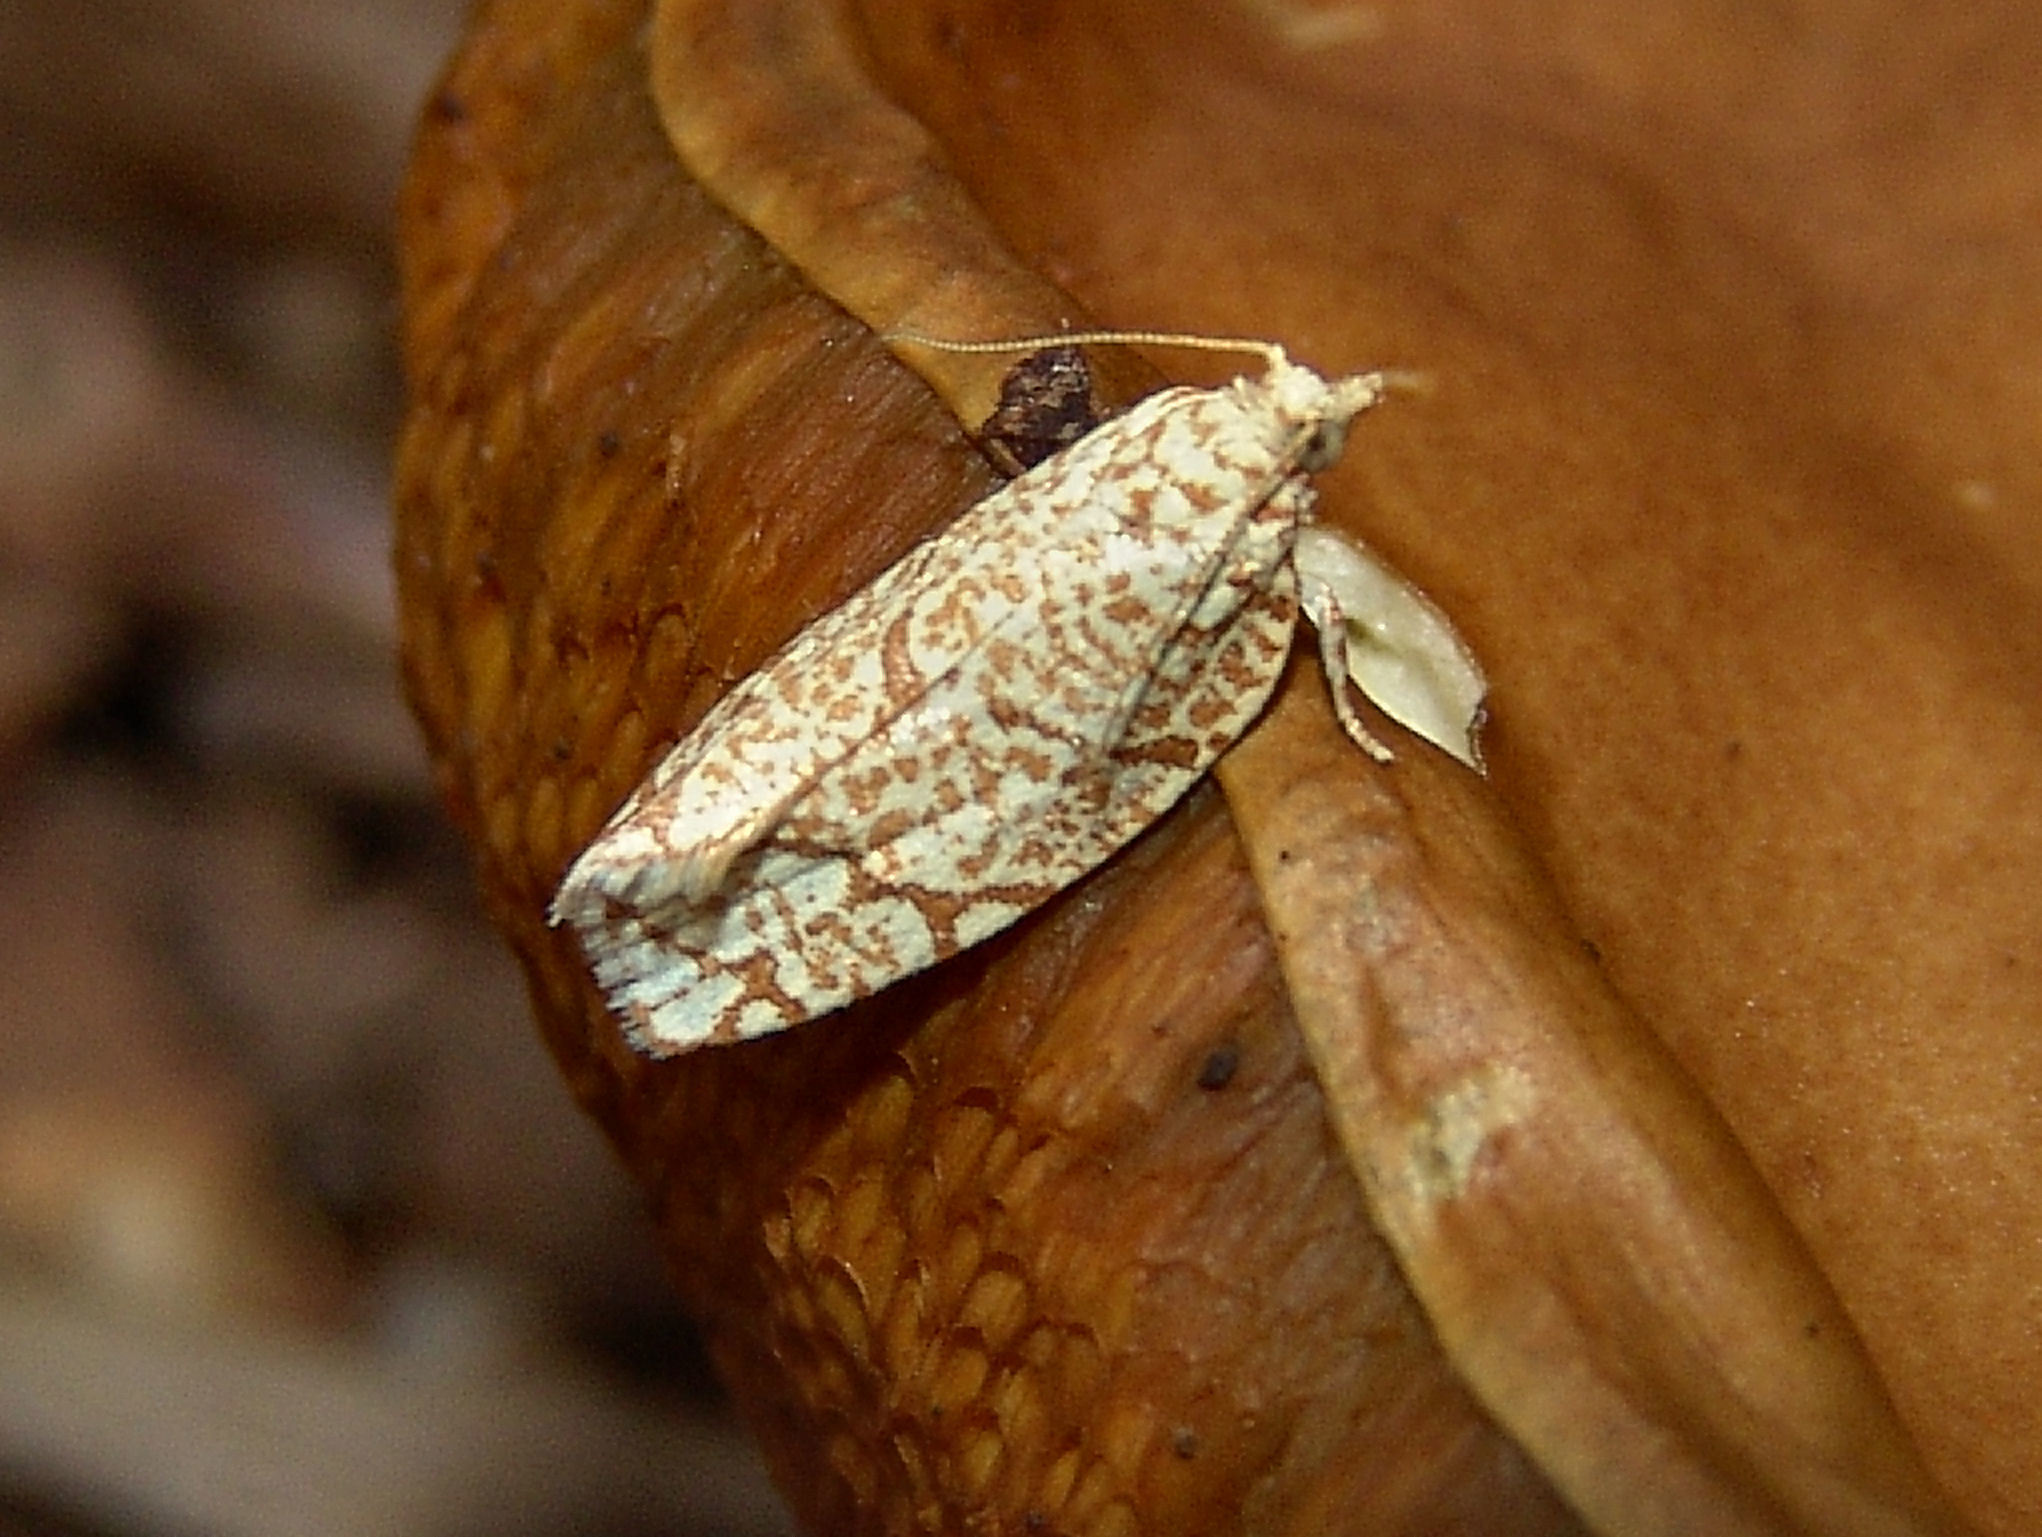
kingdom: Animalia
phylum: Arthropoda
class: Insecta
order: Lepidoptera
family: Tortricidae
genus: Argyrotaenia
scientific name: Argyrotaenia quercifoliana
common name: Yellow-winged oak leafroller moth
